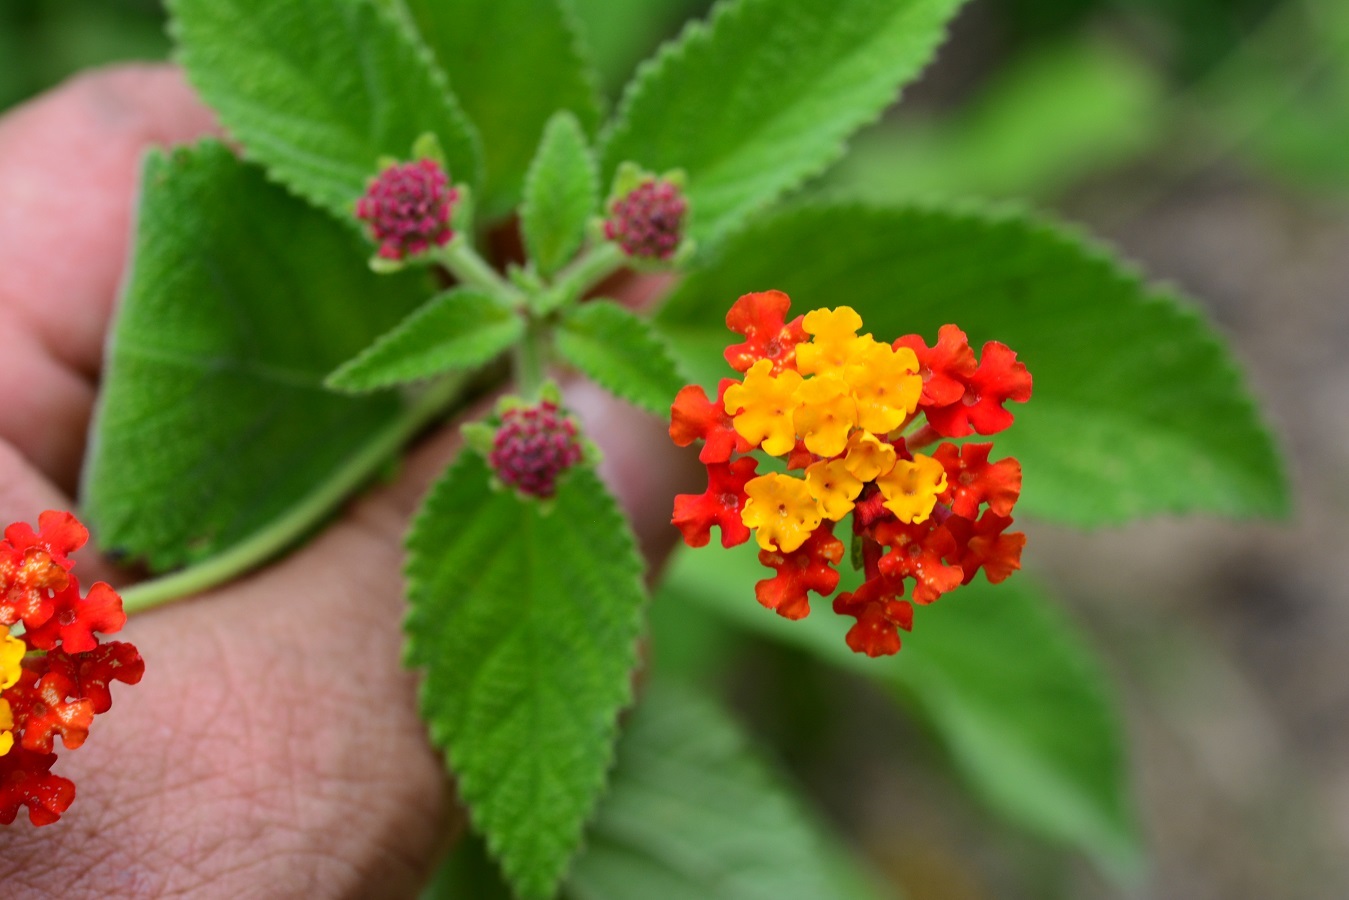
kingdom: Plantae
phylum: Tracheophyta
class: Magnoliopsida
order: Lamiales
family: Verbenaceae
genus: Lantana
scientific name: Lantana camara
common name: Lantana
